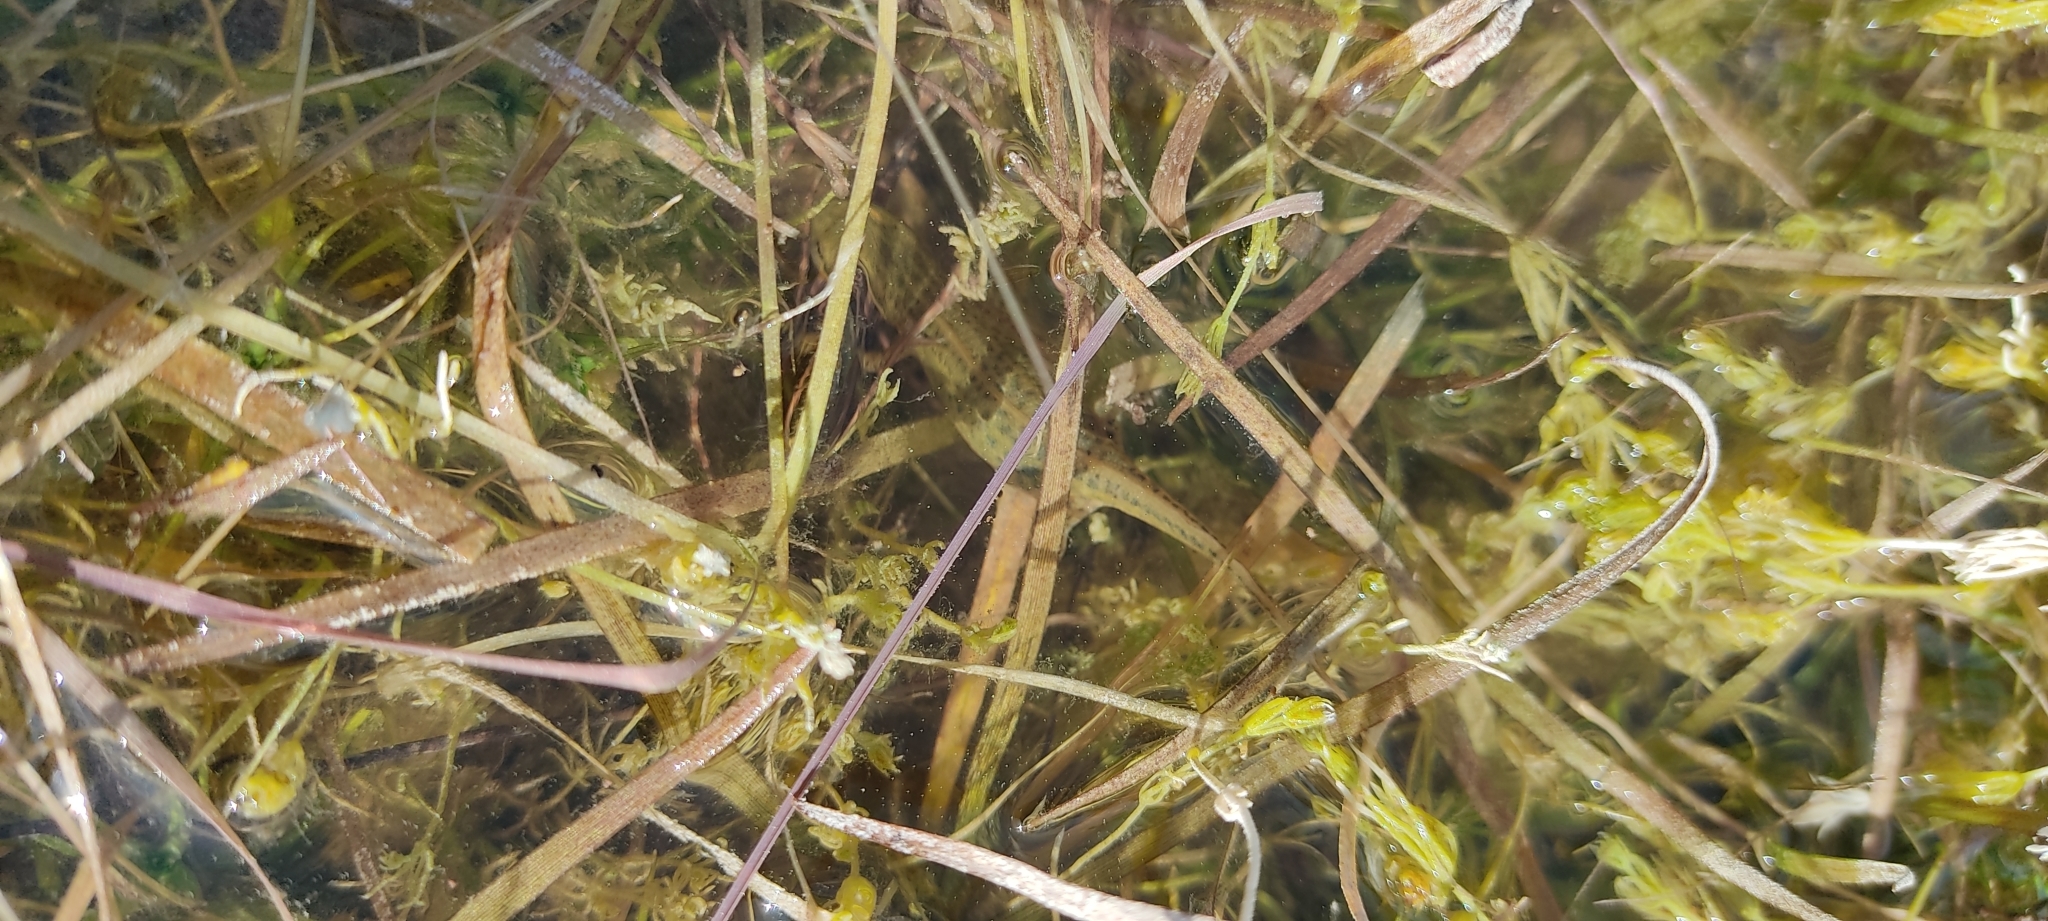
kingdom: Animalia
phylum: Chordata
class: Amphibia
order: Caudata
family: Salamandridae
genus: Lissotriton
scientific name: Lissotriton helveticus
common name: Palmate newt
